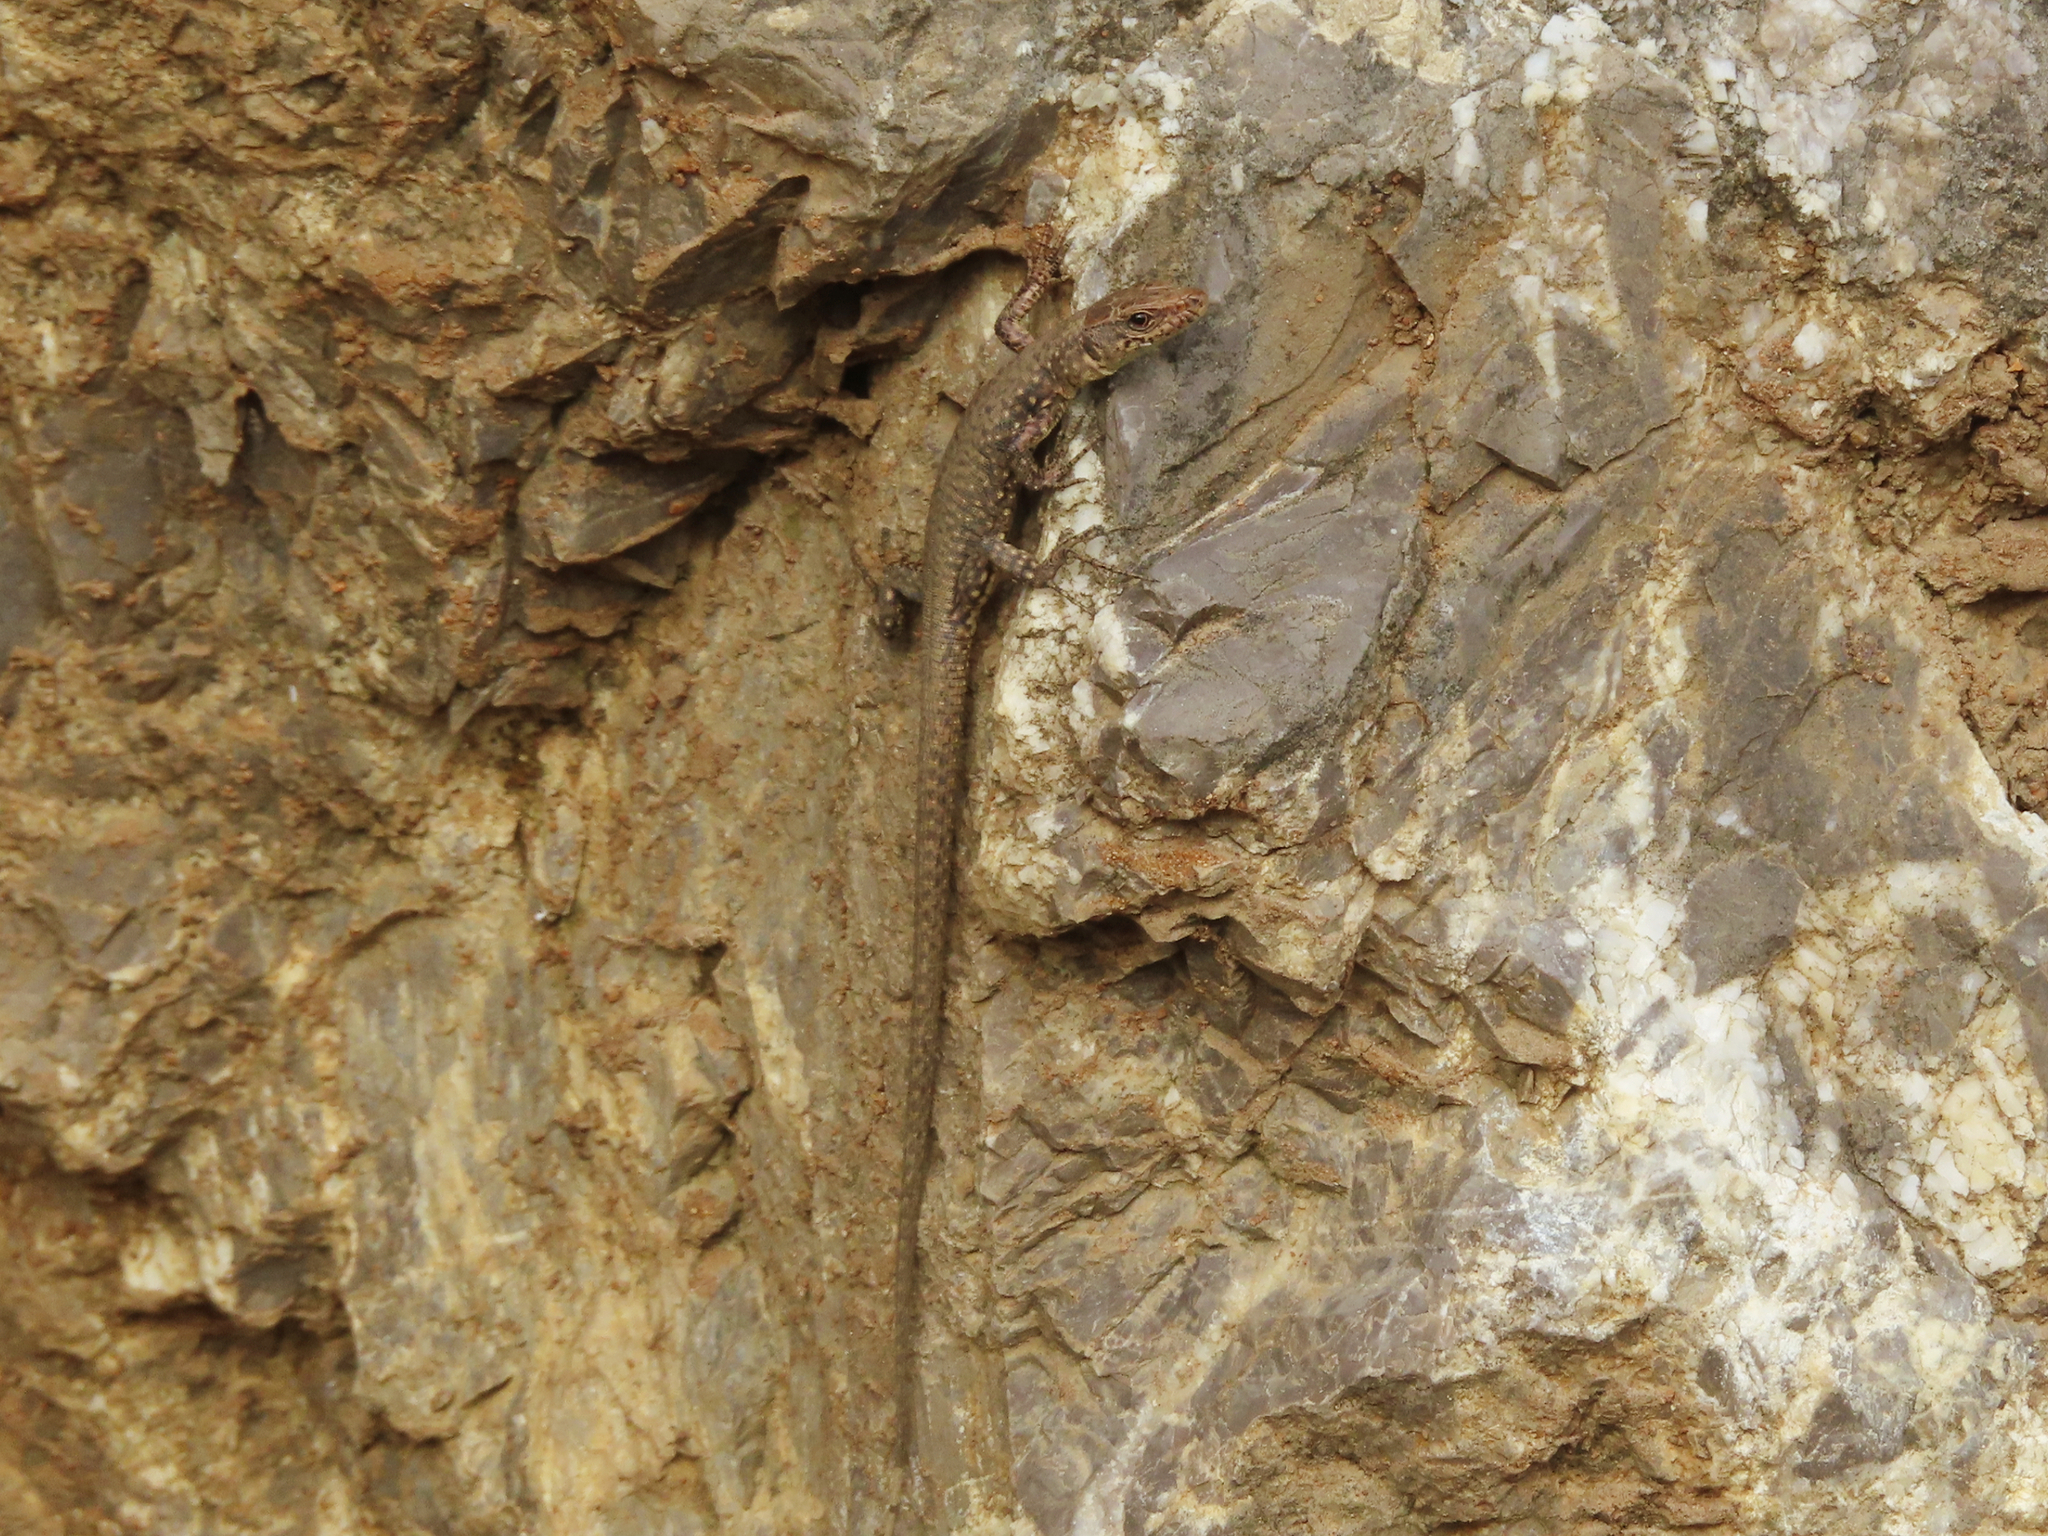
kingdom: Animalia
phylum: Chordata
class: Squamata
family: Lacertidae
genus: Darevskia
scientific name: Darevskia bithynica
